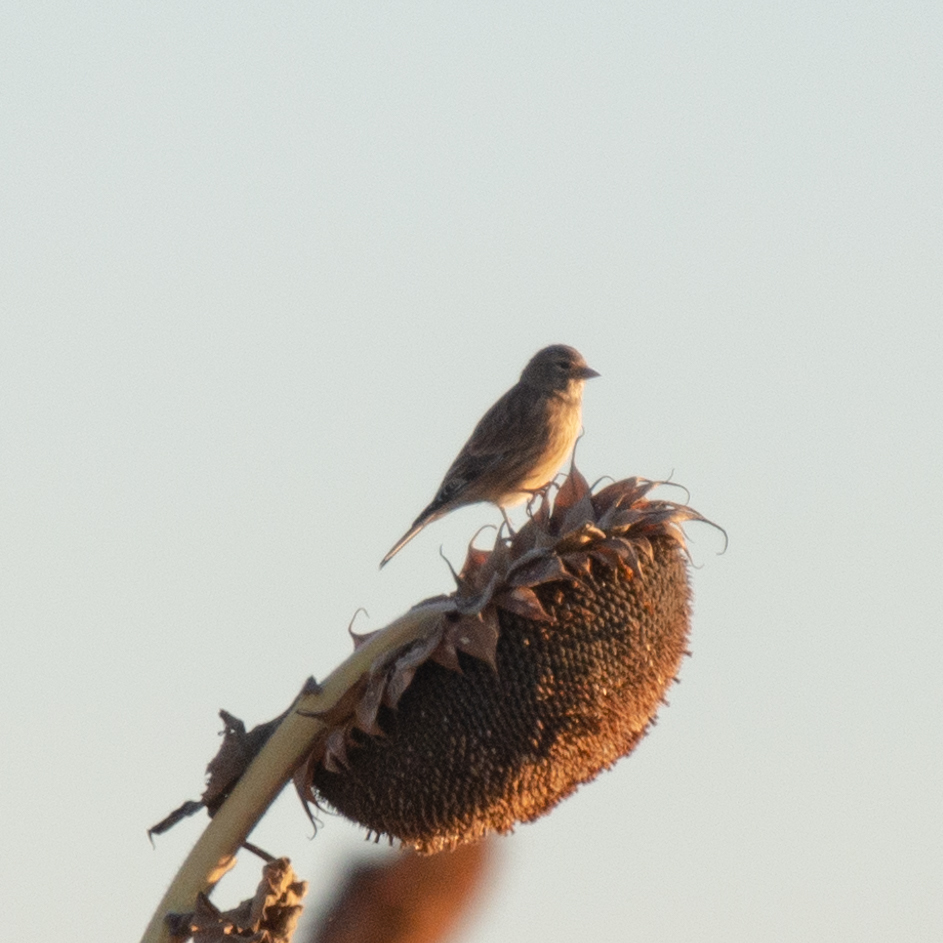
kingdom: Animalia
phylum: Chordata
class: Aves
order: Passeriformes
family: Fringillidae
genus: Linaria
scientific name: Linaria cannabina
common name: Common linnet
